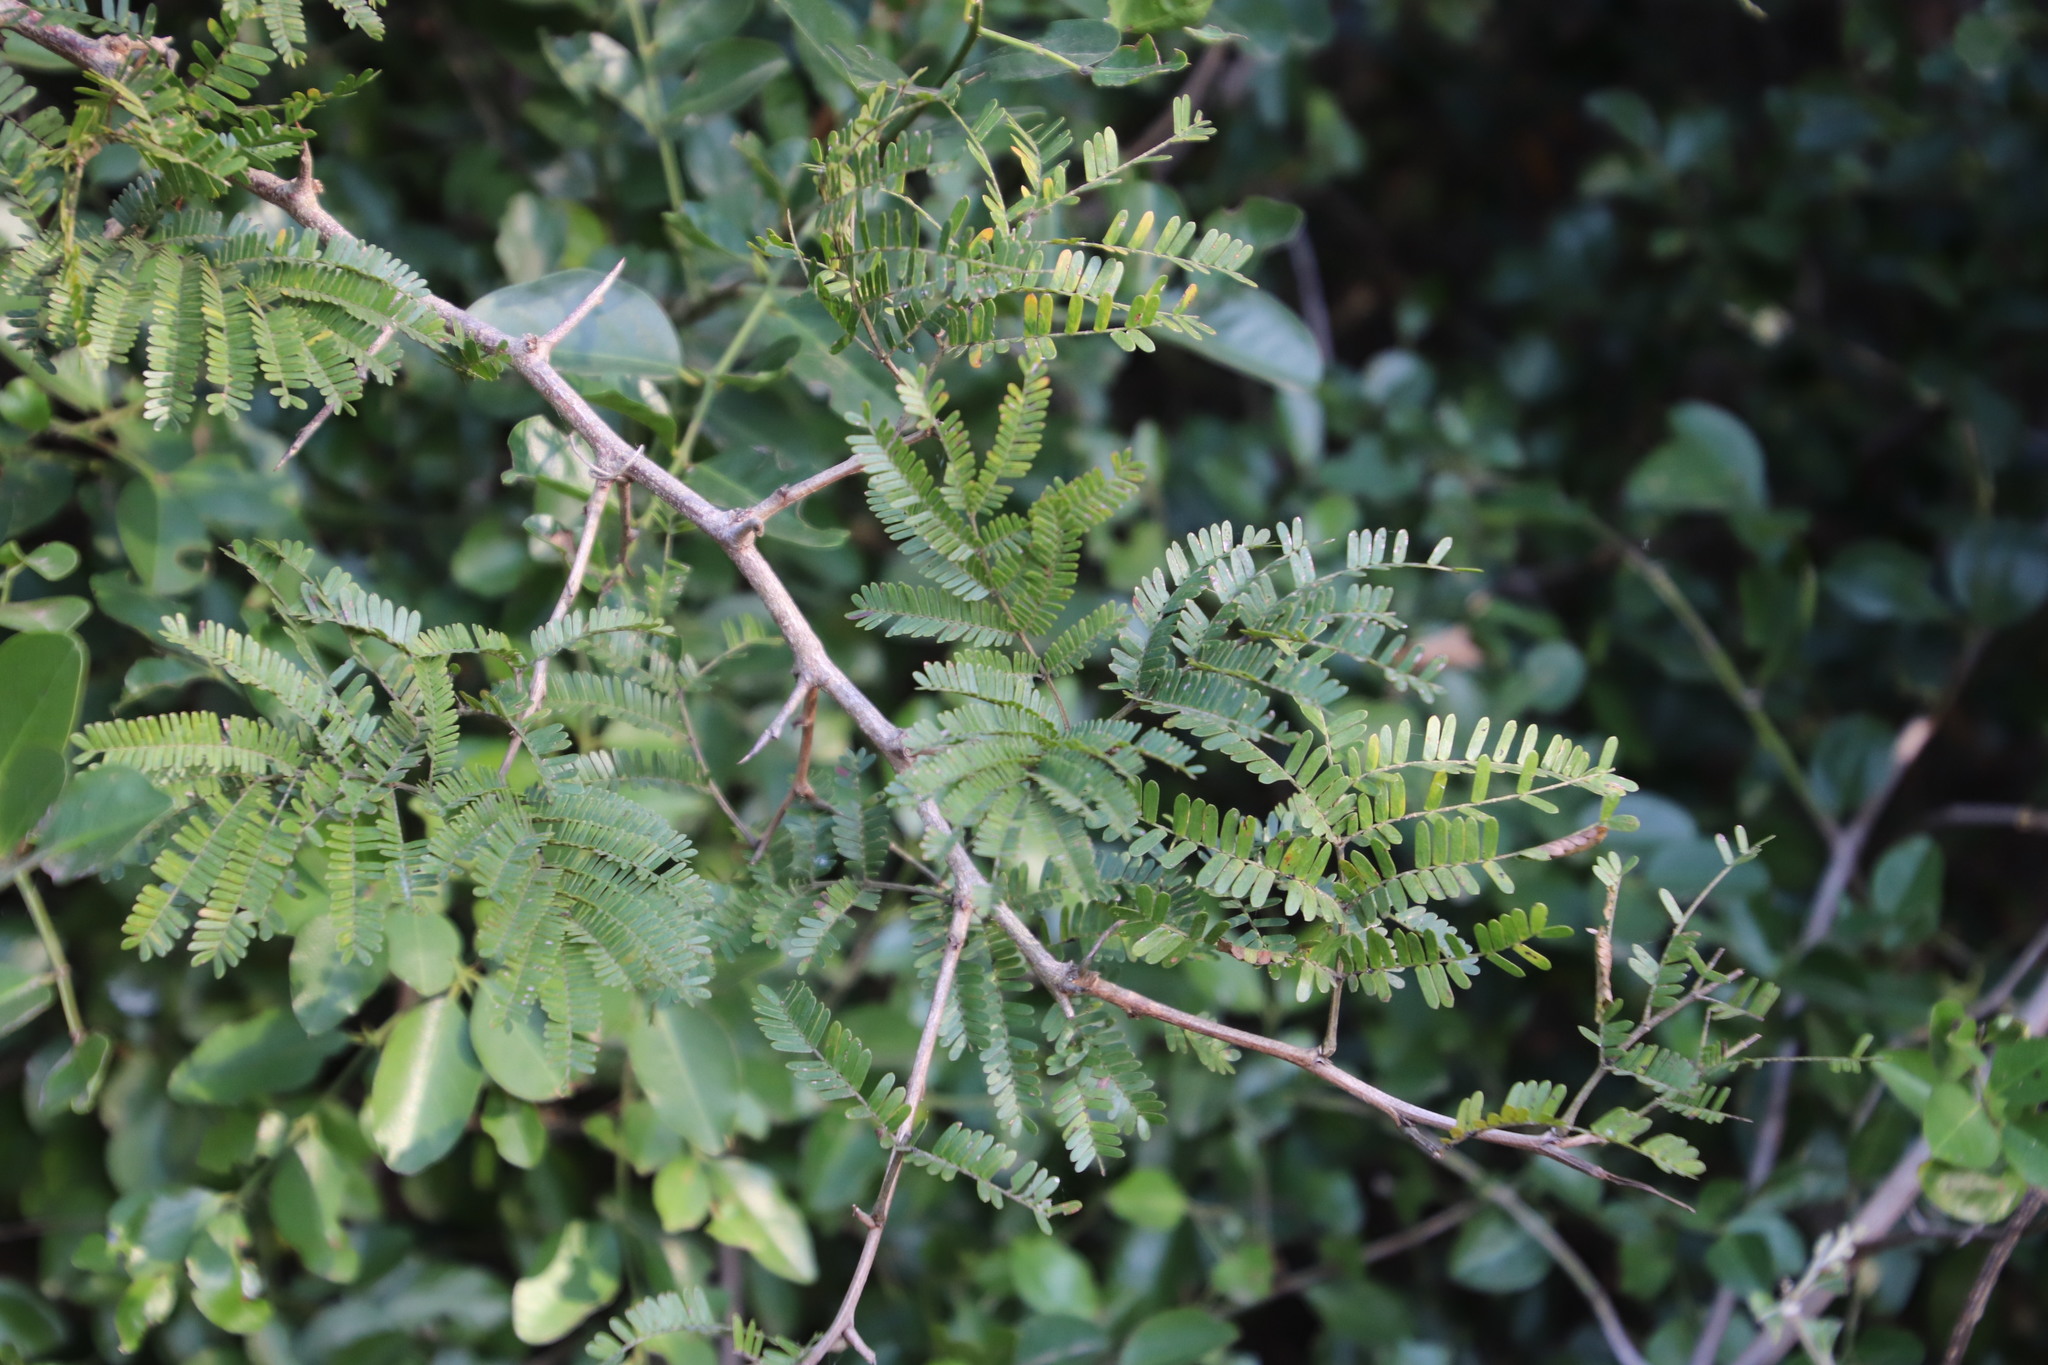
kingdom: Plantae
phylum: Tracheophyta
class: Magnoliopsida
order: Fabales
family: Fabaceae
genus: Dichrostachys
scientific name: Dichrostachys cinerea
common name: Sicklebush
